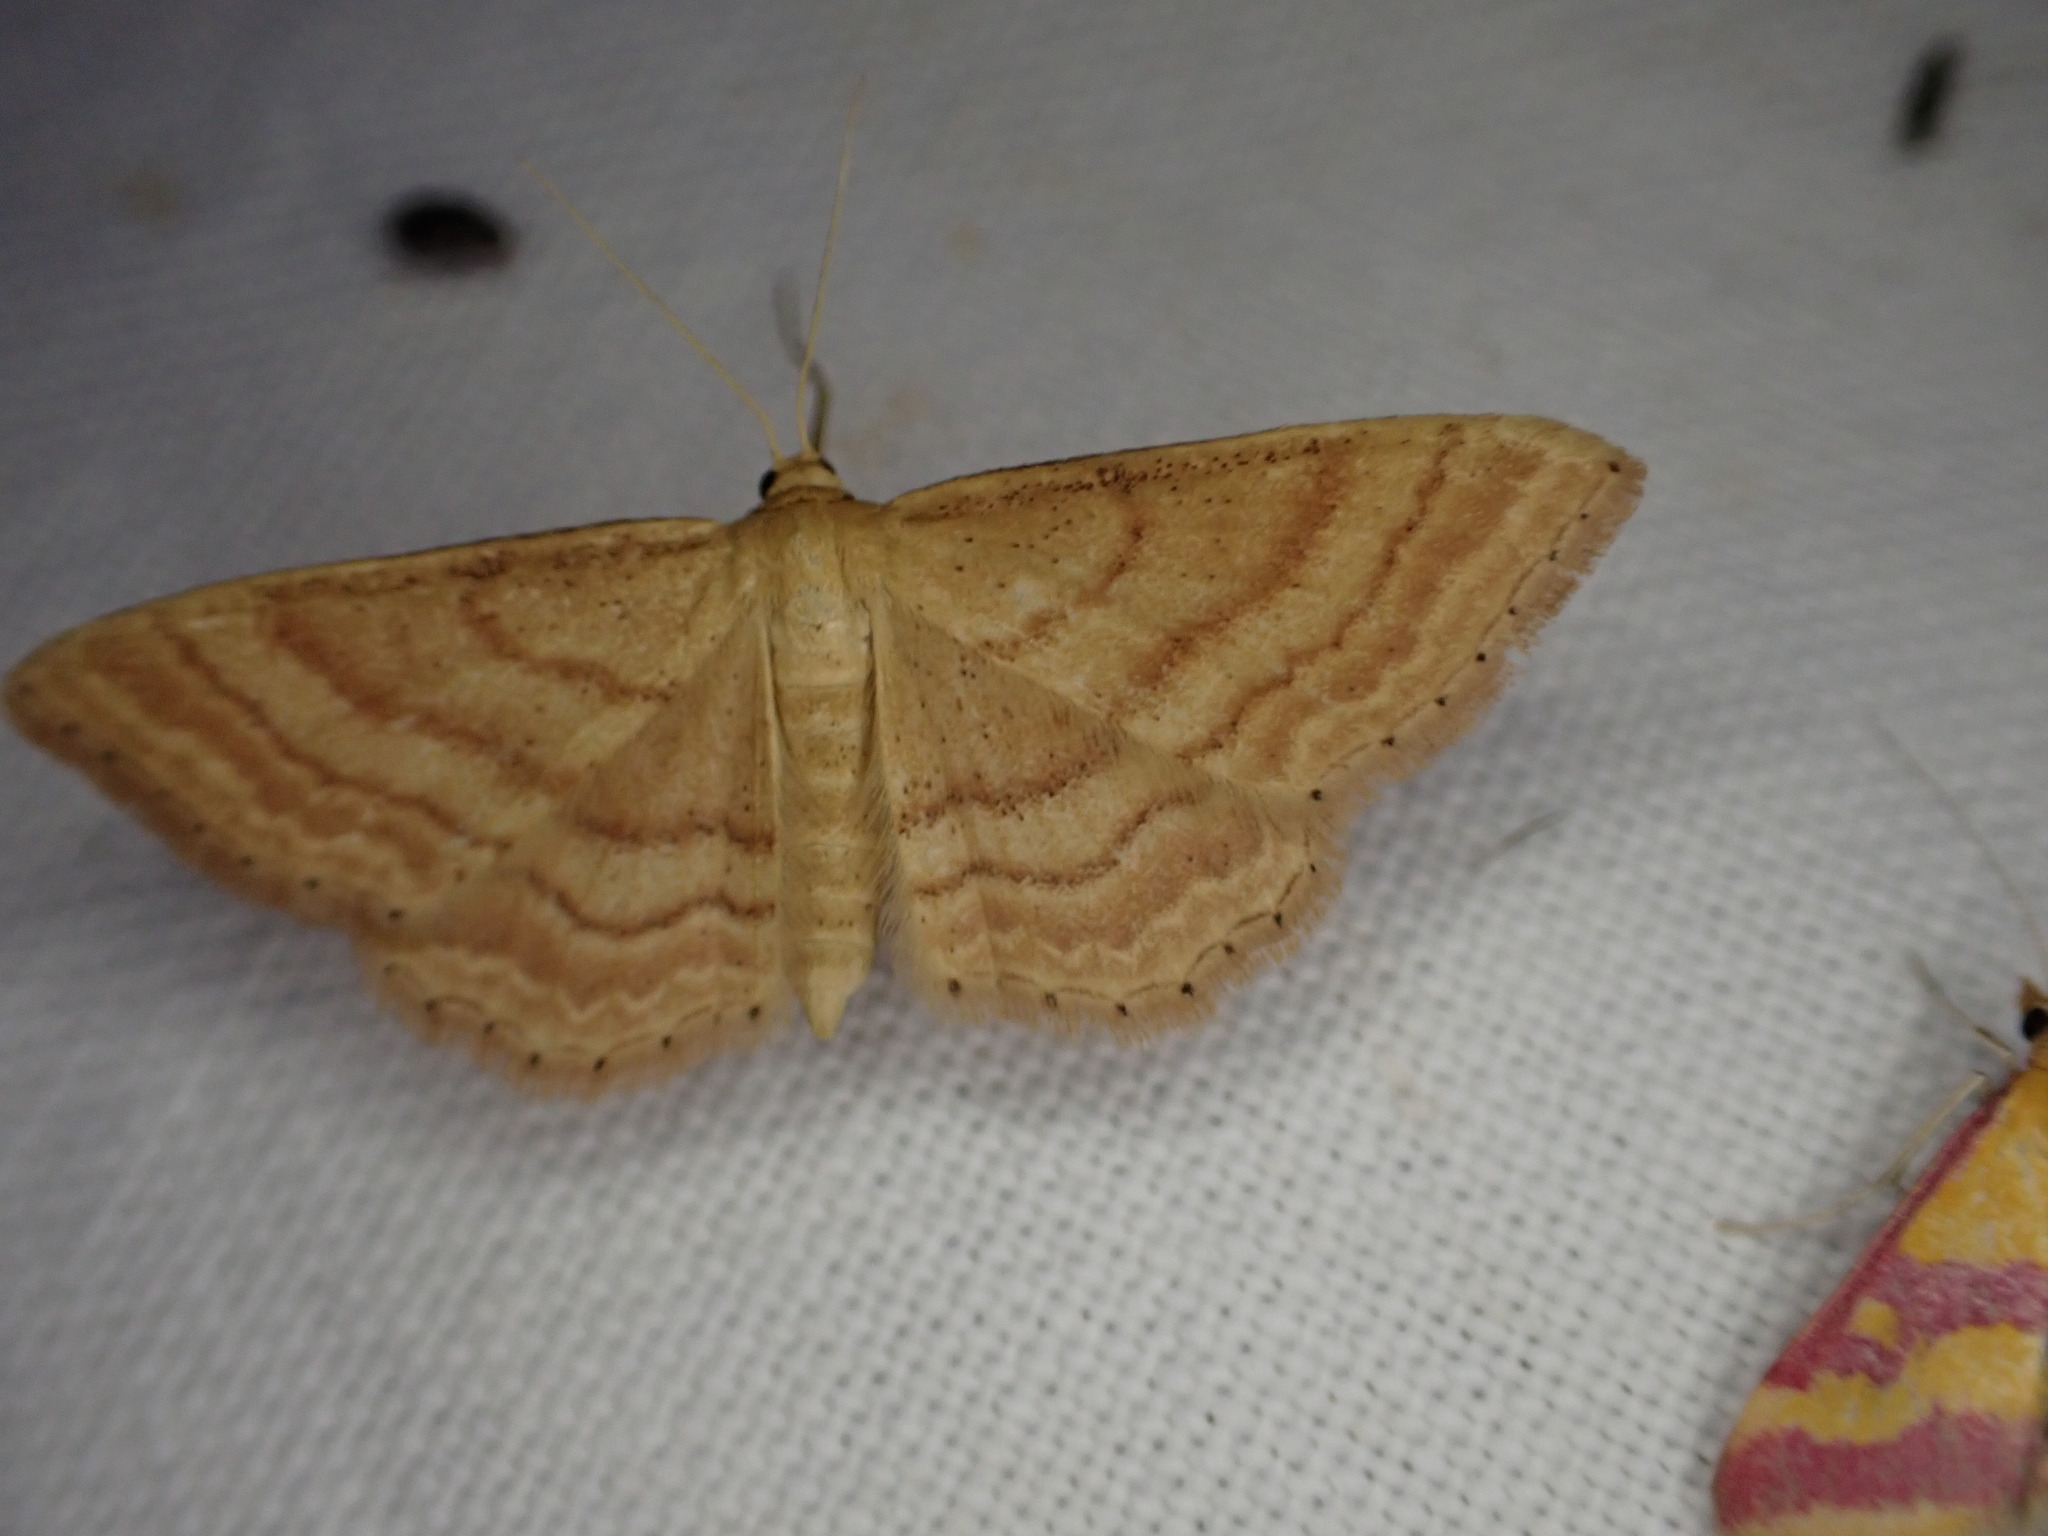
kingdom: Animalia
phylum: Arthropoda
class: Insecta
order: Lepidoptera
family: Geometridae
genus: Idaea
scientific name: Idaea ochrata
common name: Bright wave
